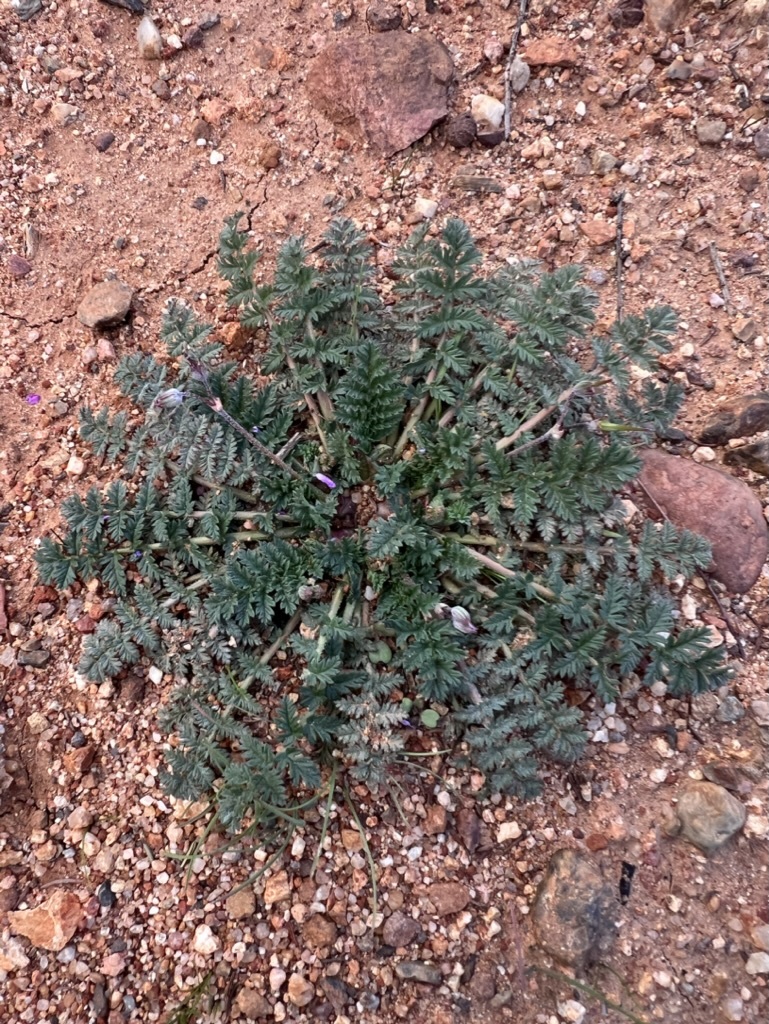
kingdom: Plantae
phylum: Tracheophyta
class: Magnoliopsida
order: Geraniales
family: Geraniaceae
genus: Erodium
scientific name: Erodium cicutarium
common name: Common stork's-bill
